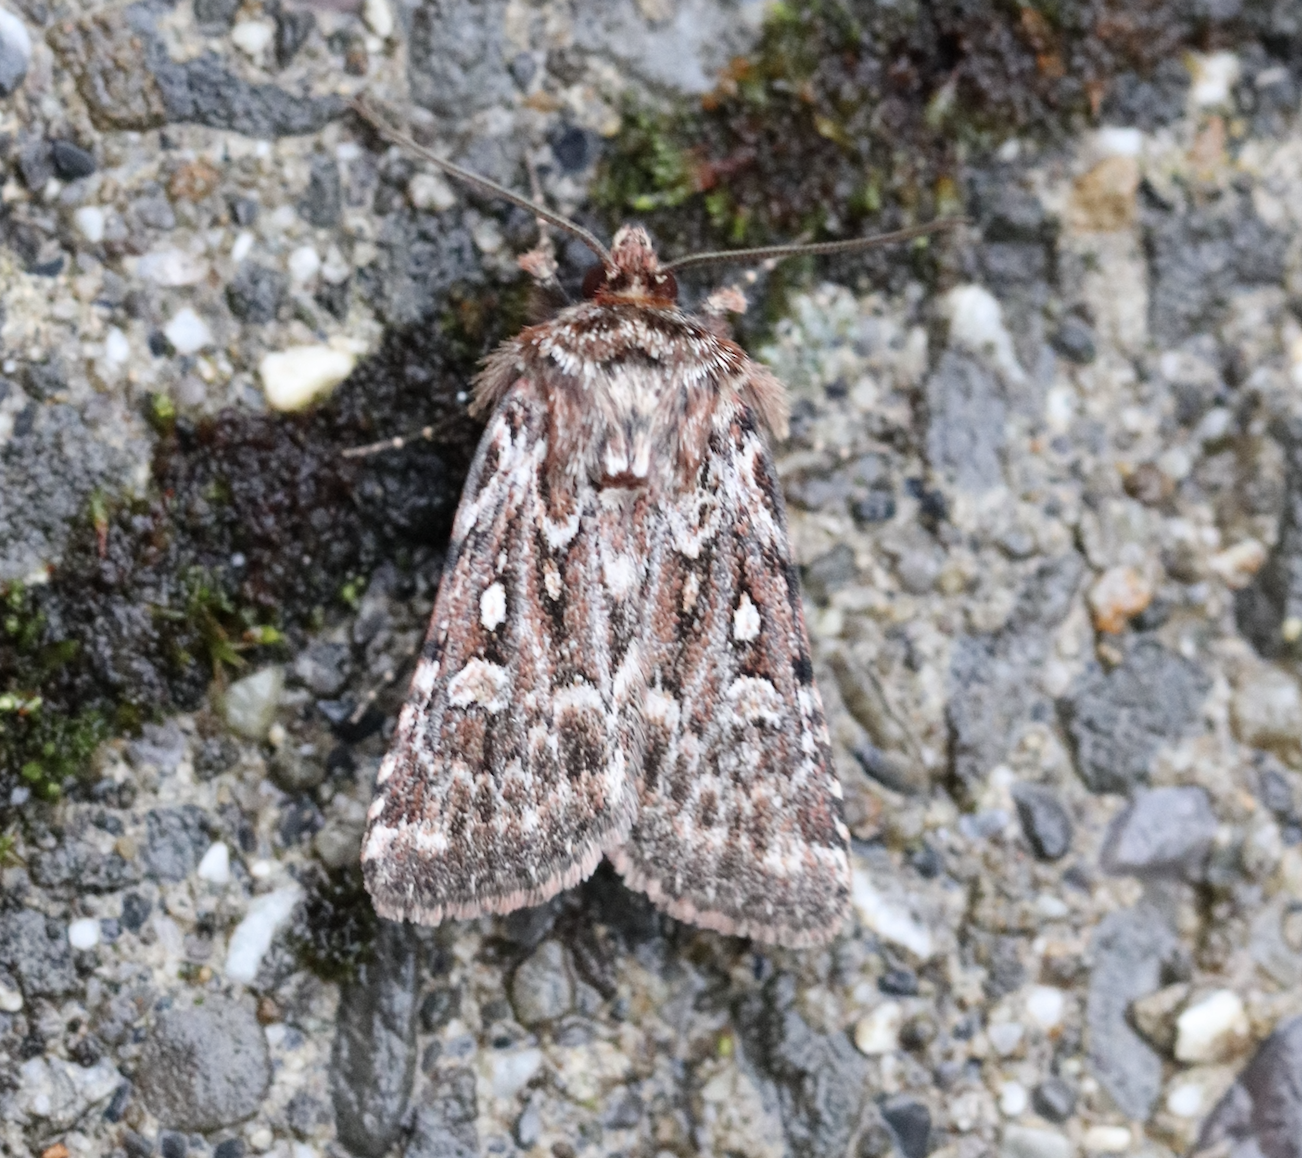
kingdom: Animalia
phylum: Arthropoda
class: Insecta
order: Lepidoptera
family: Noctuidae
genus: Lycophotia
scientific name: Lycophotia porphyrea
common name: True lover's knot
